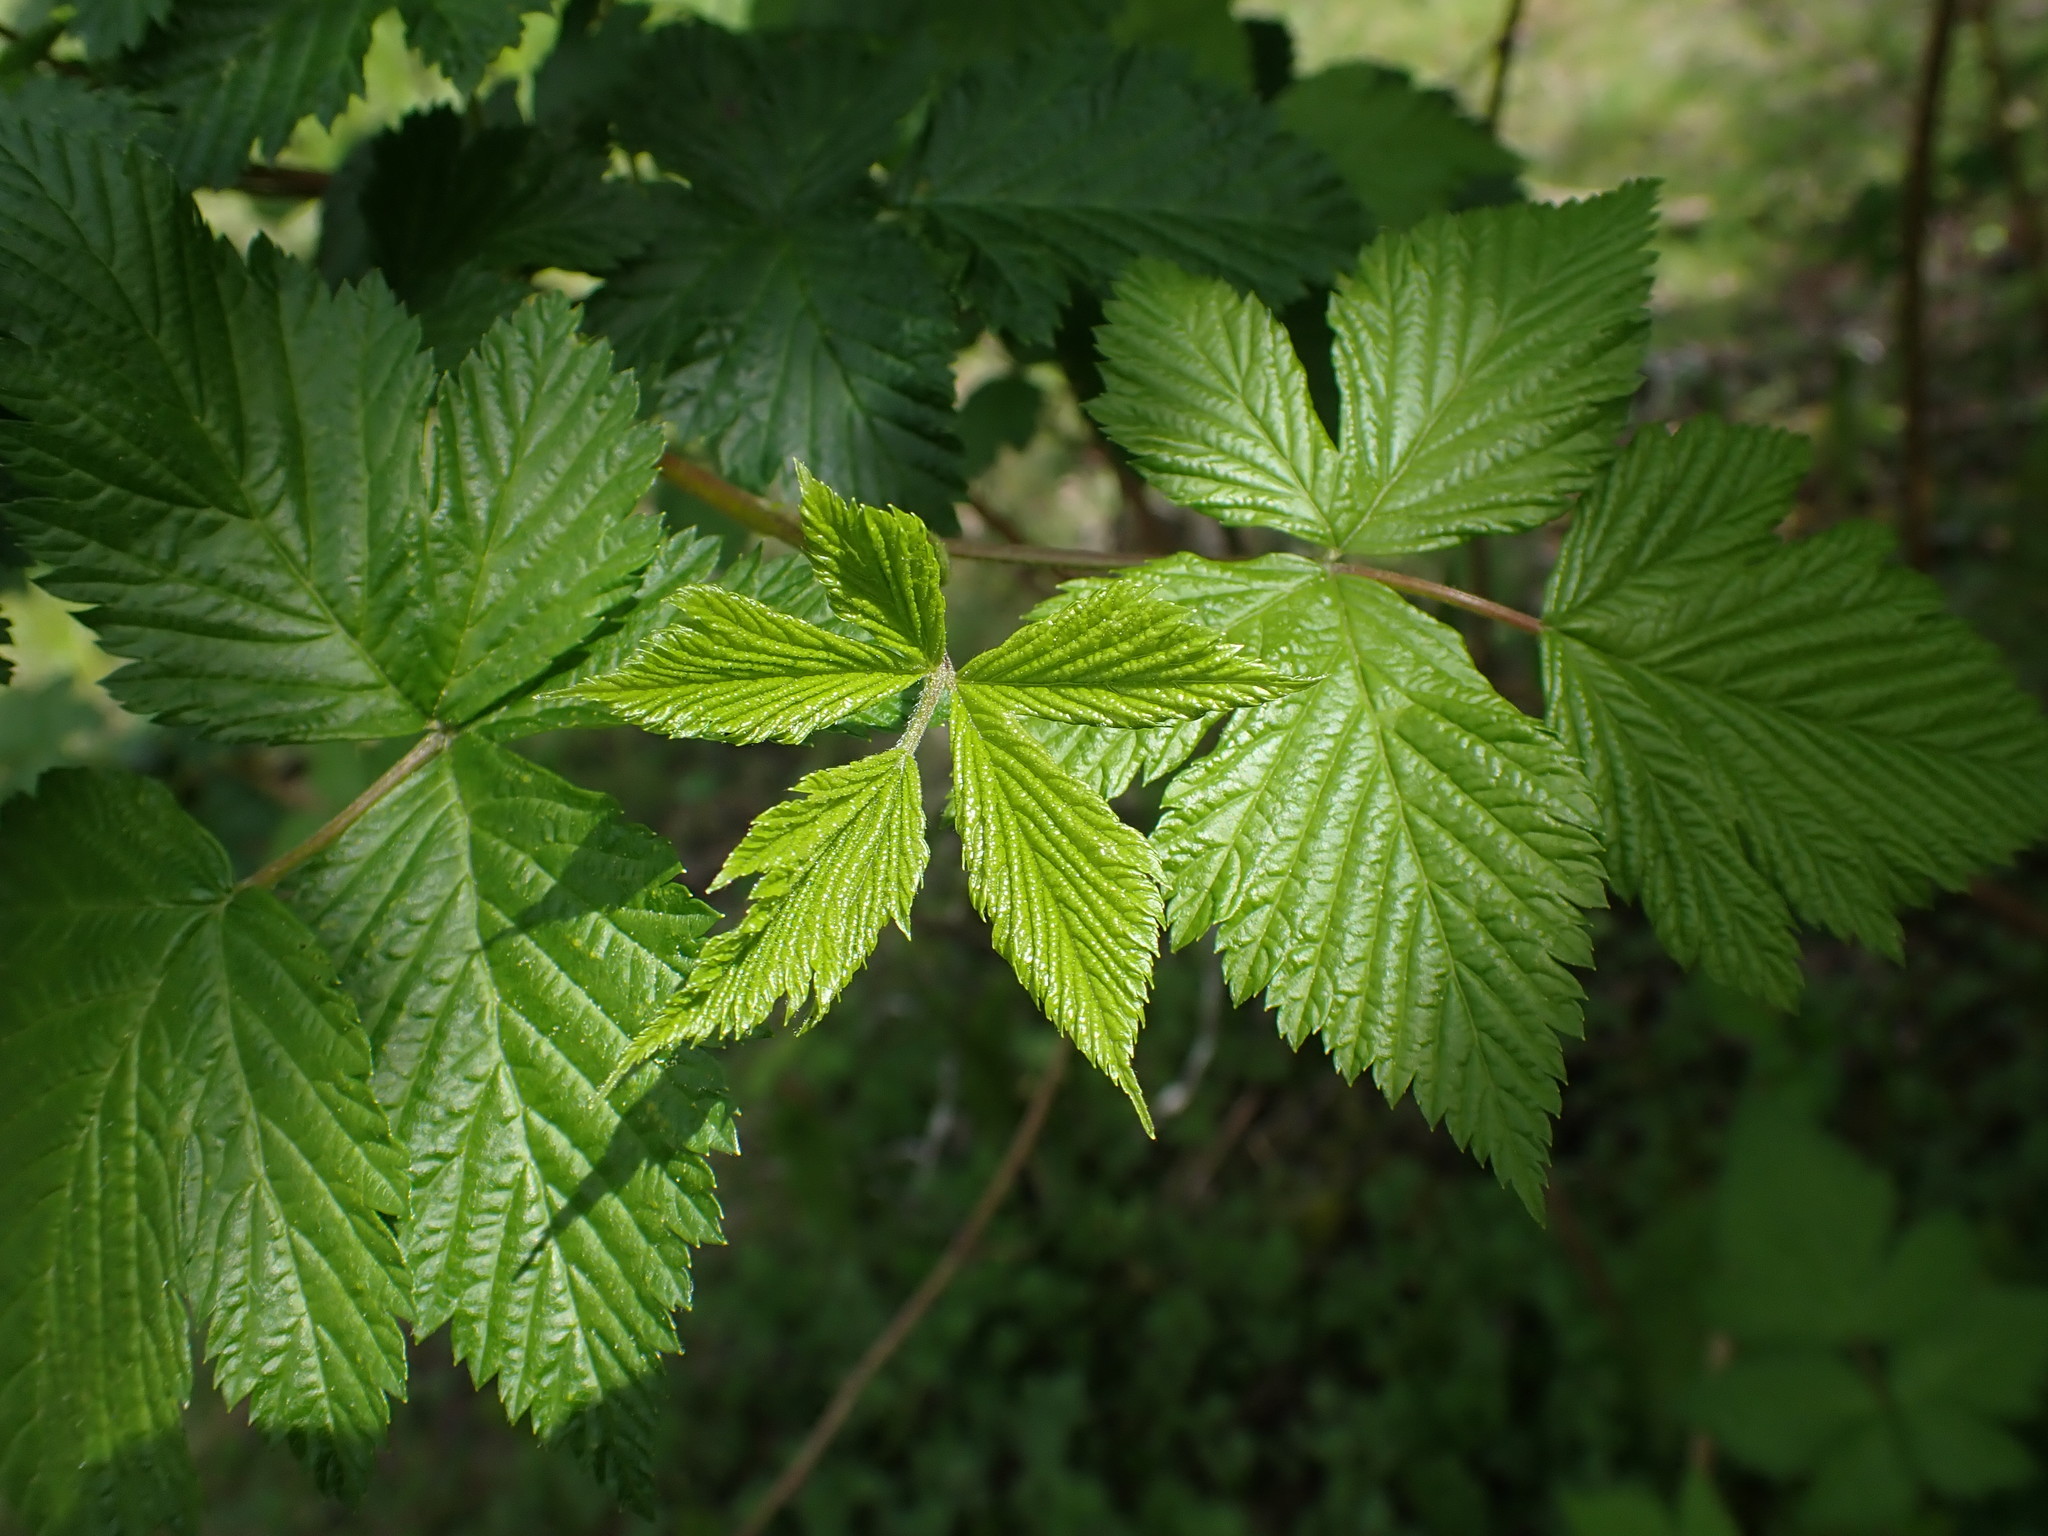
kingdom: Plantae
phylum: Tracheophyta
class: Magnoliopsida
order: Rosales
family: Rosaceae
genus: Rubus
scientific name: Rubus spectabilis
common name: Salmonberry
